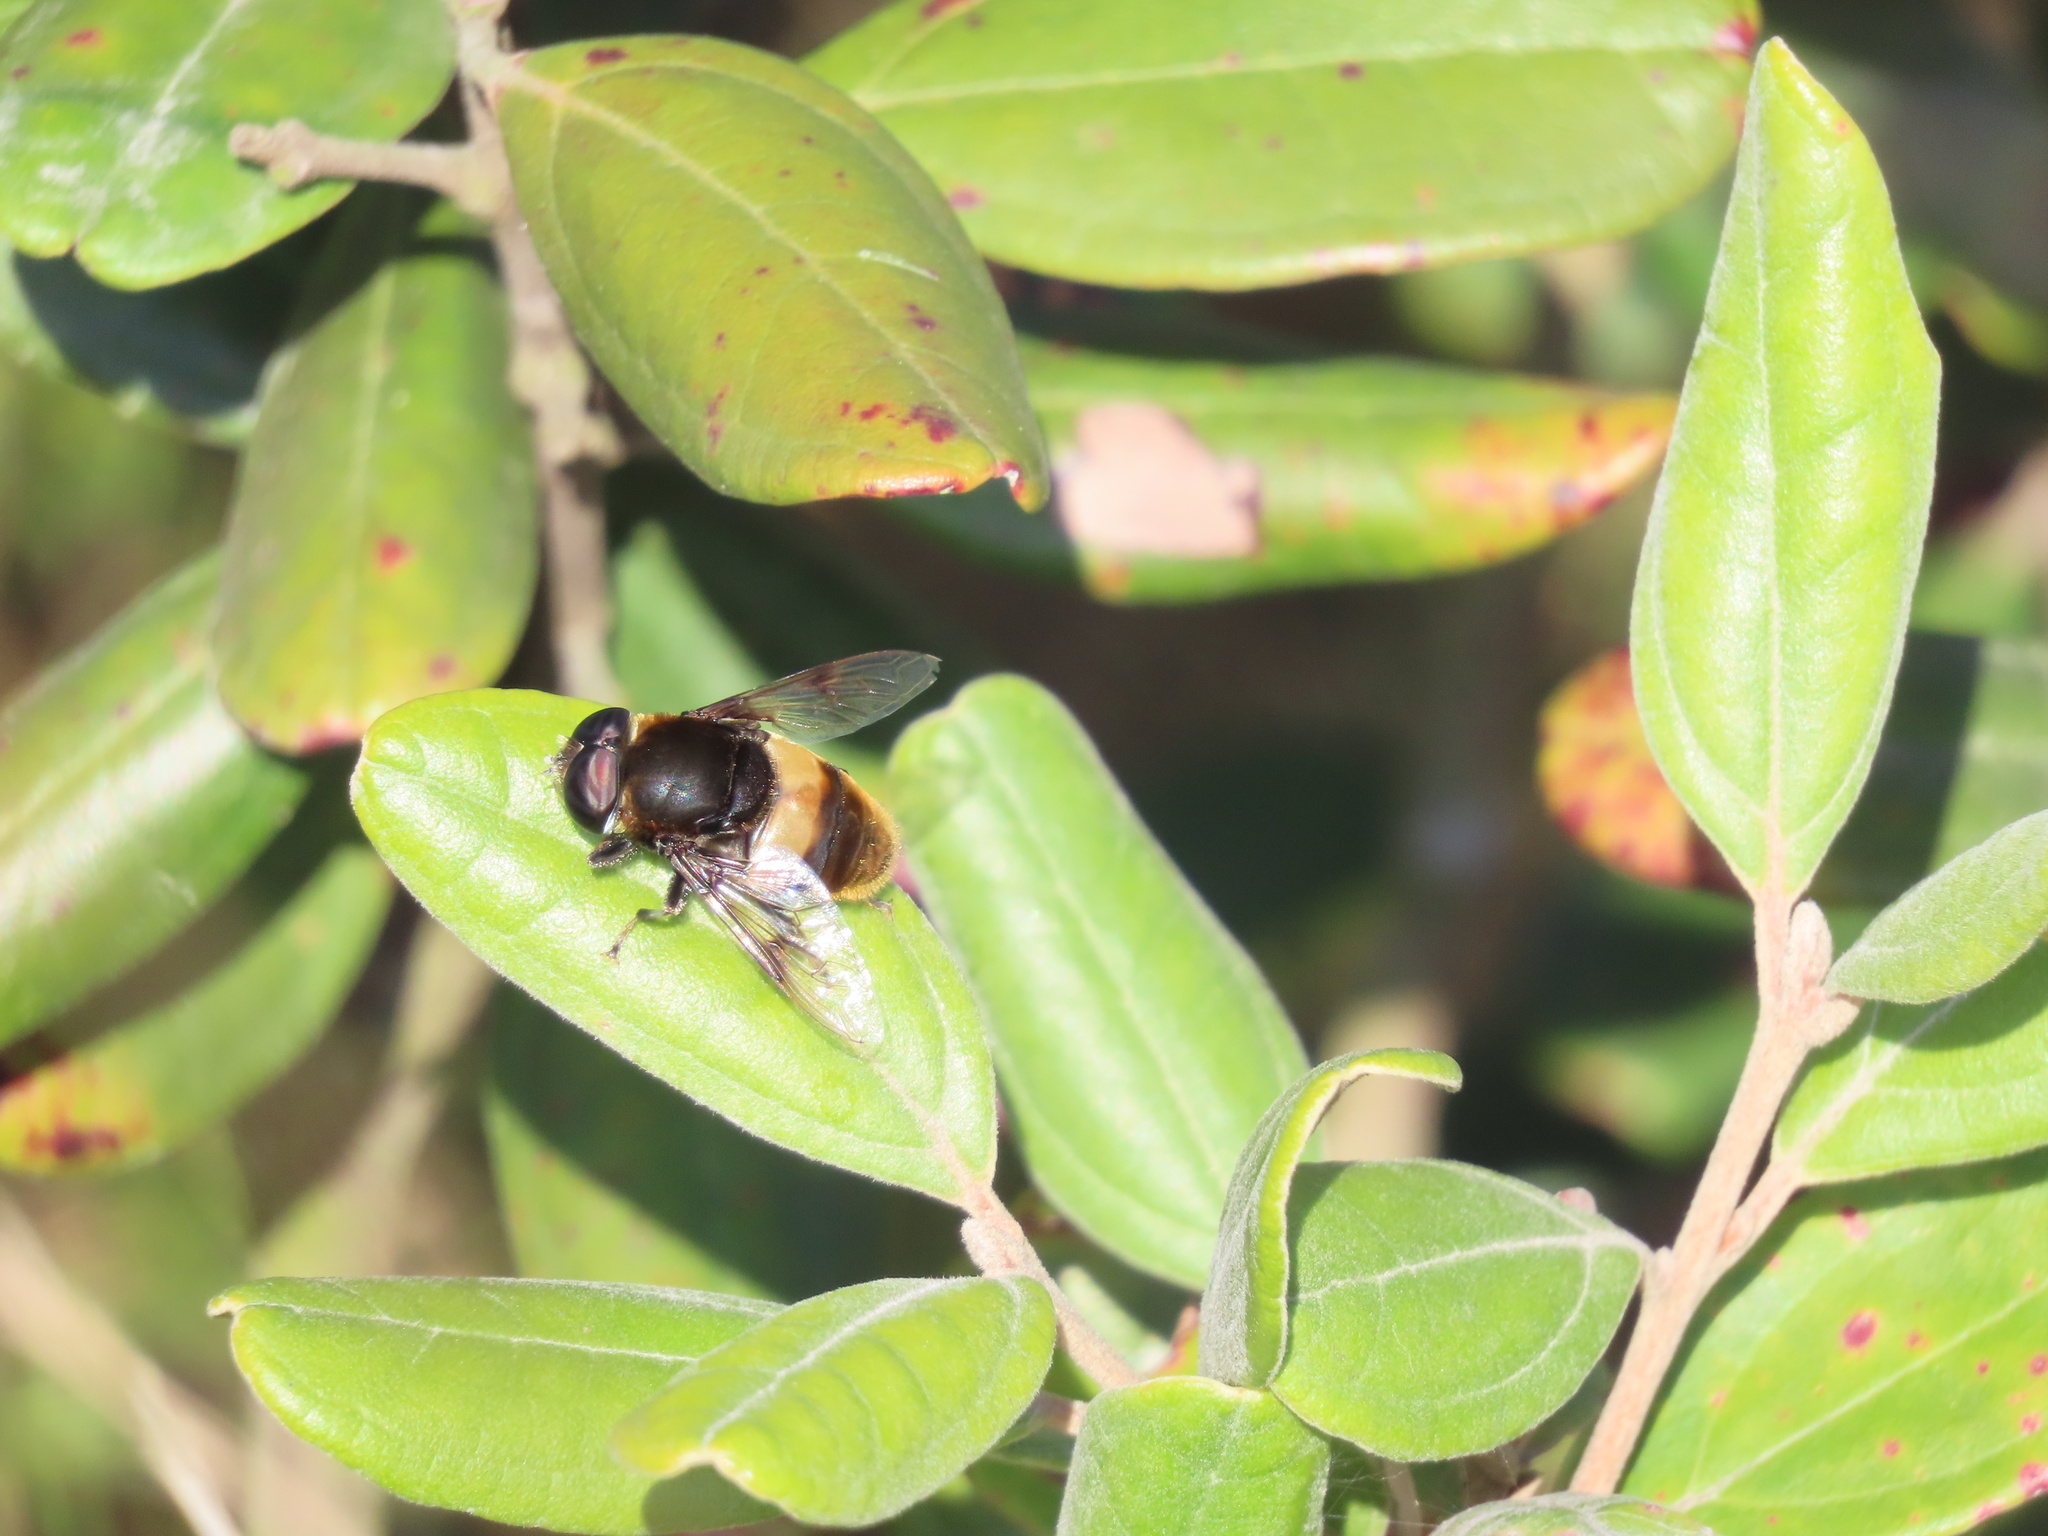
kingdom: Animalia
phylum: Arthropoda
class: Insecta
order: Diptera
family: Syrphidae
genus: Phytomia
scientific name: Phytomia zonata
